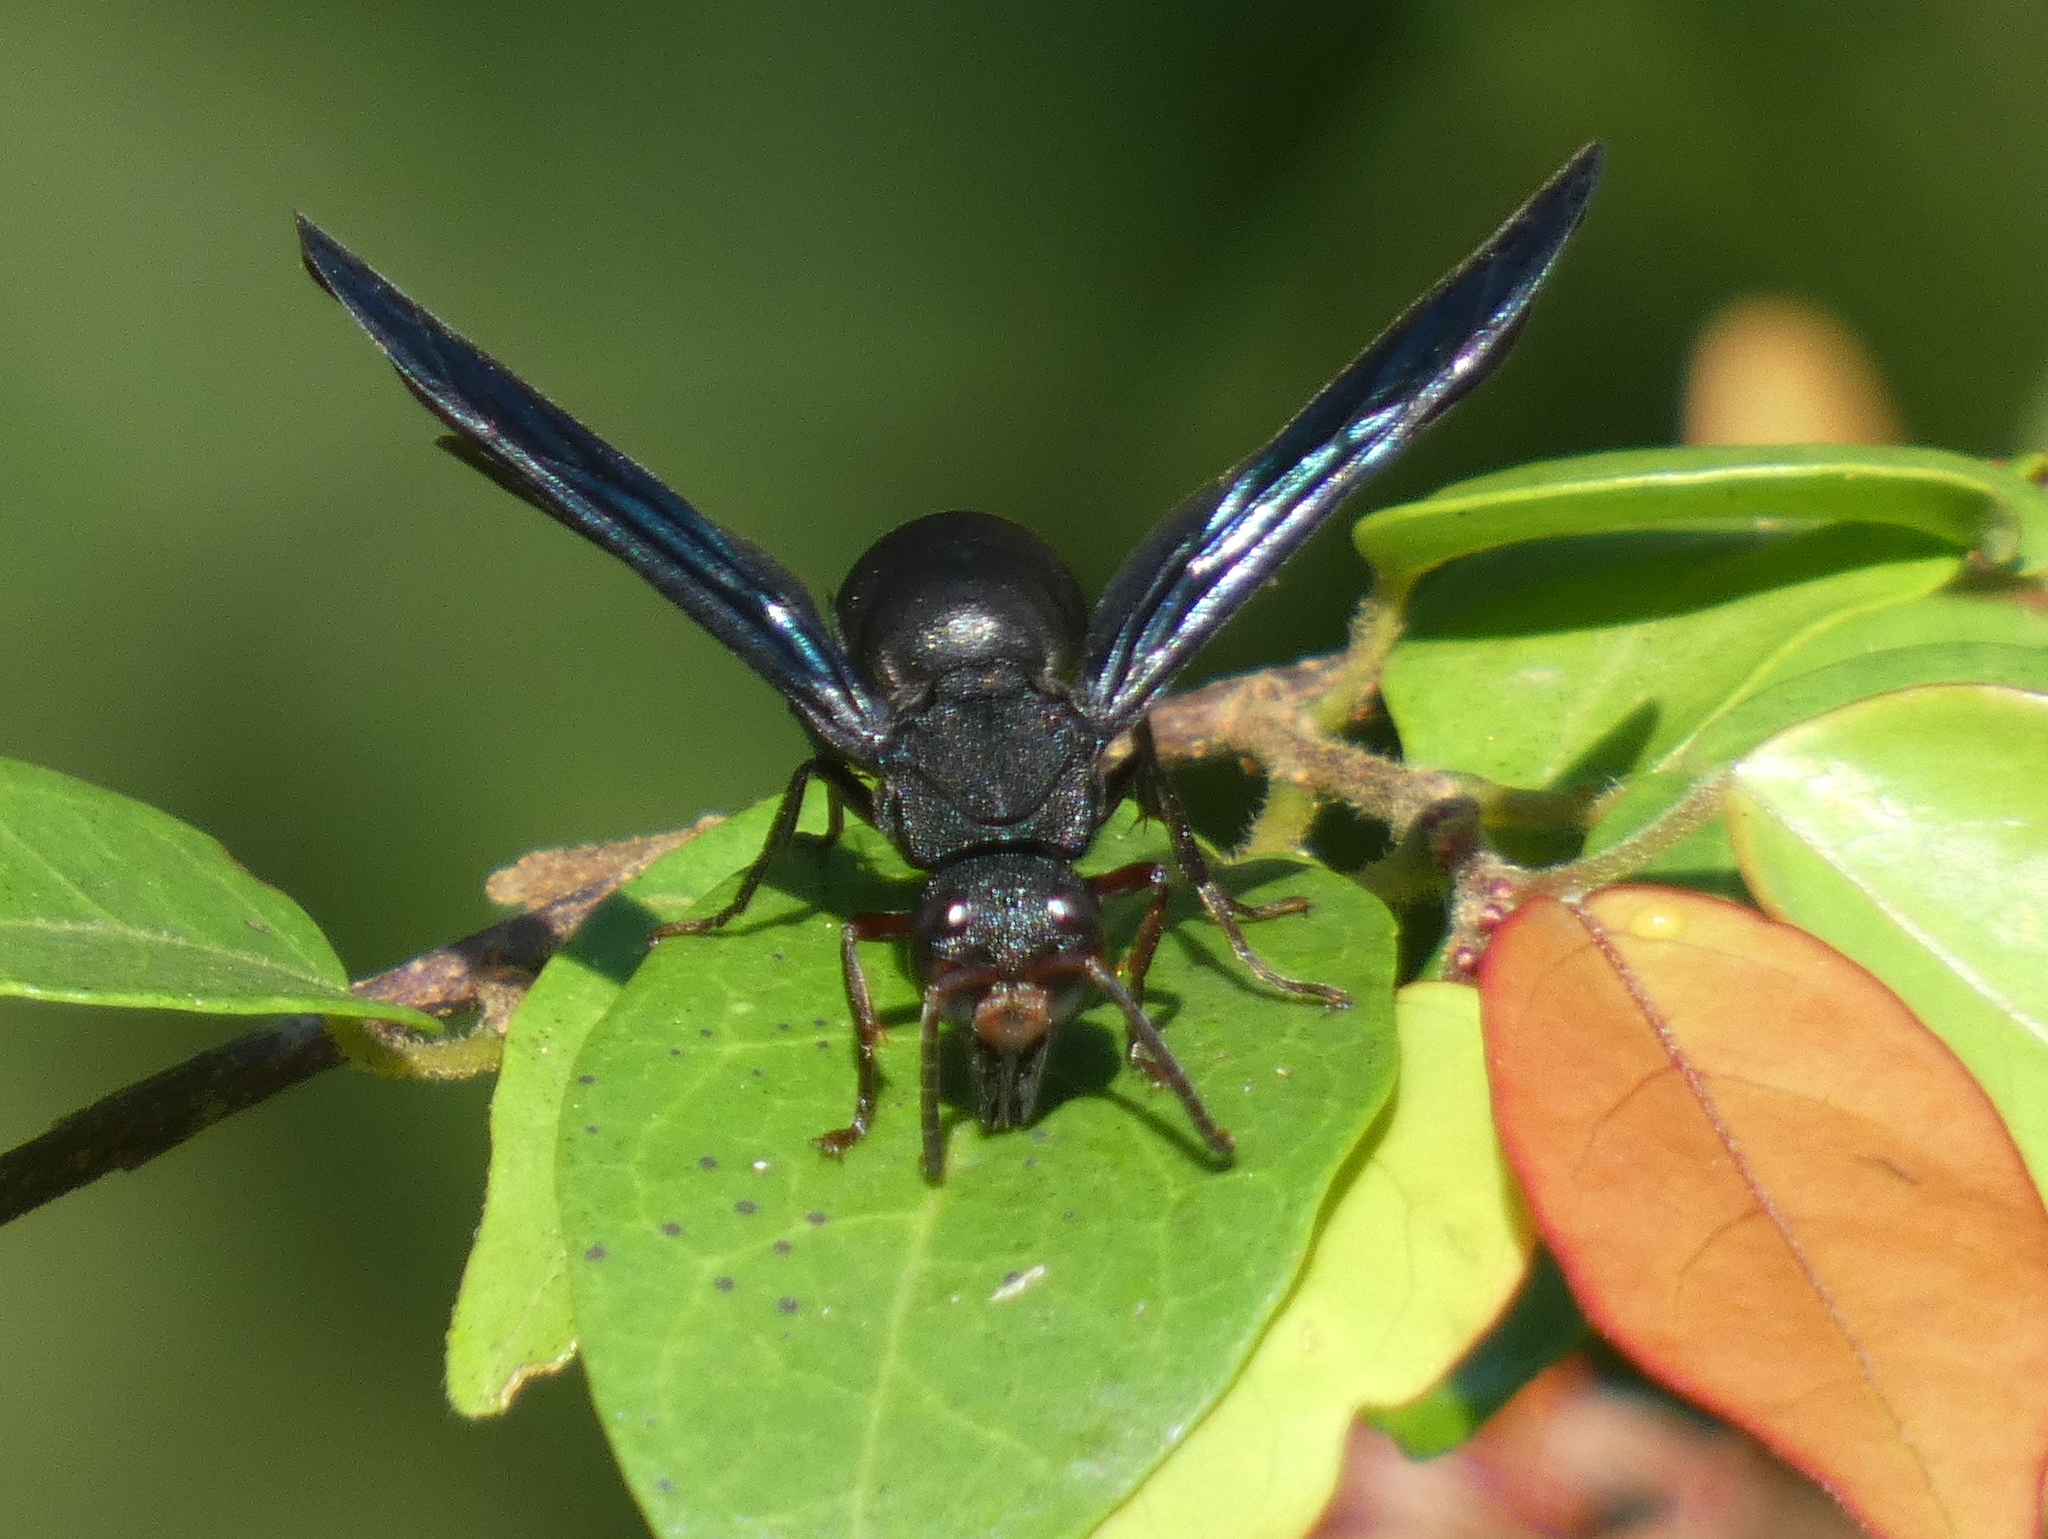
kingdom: Animalia
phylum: Arthropoda
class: Insecta
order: Hymenoptera
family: Eumenidae
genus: Anterhynchium
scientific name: Anterhynchium synagroide
